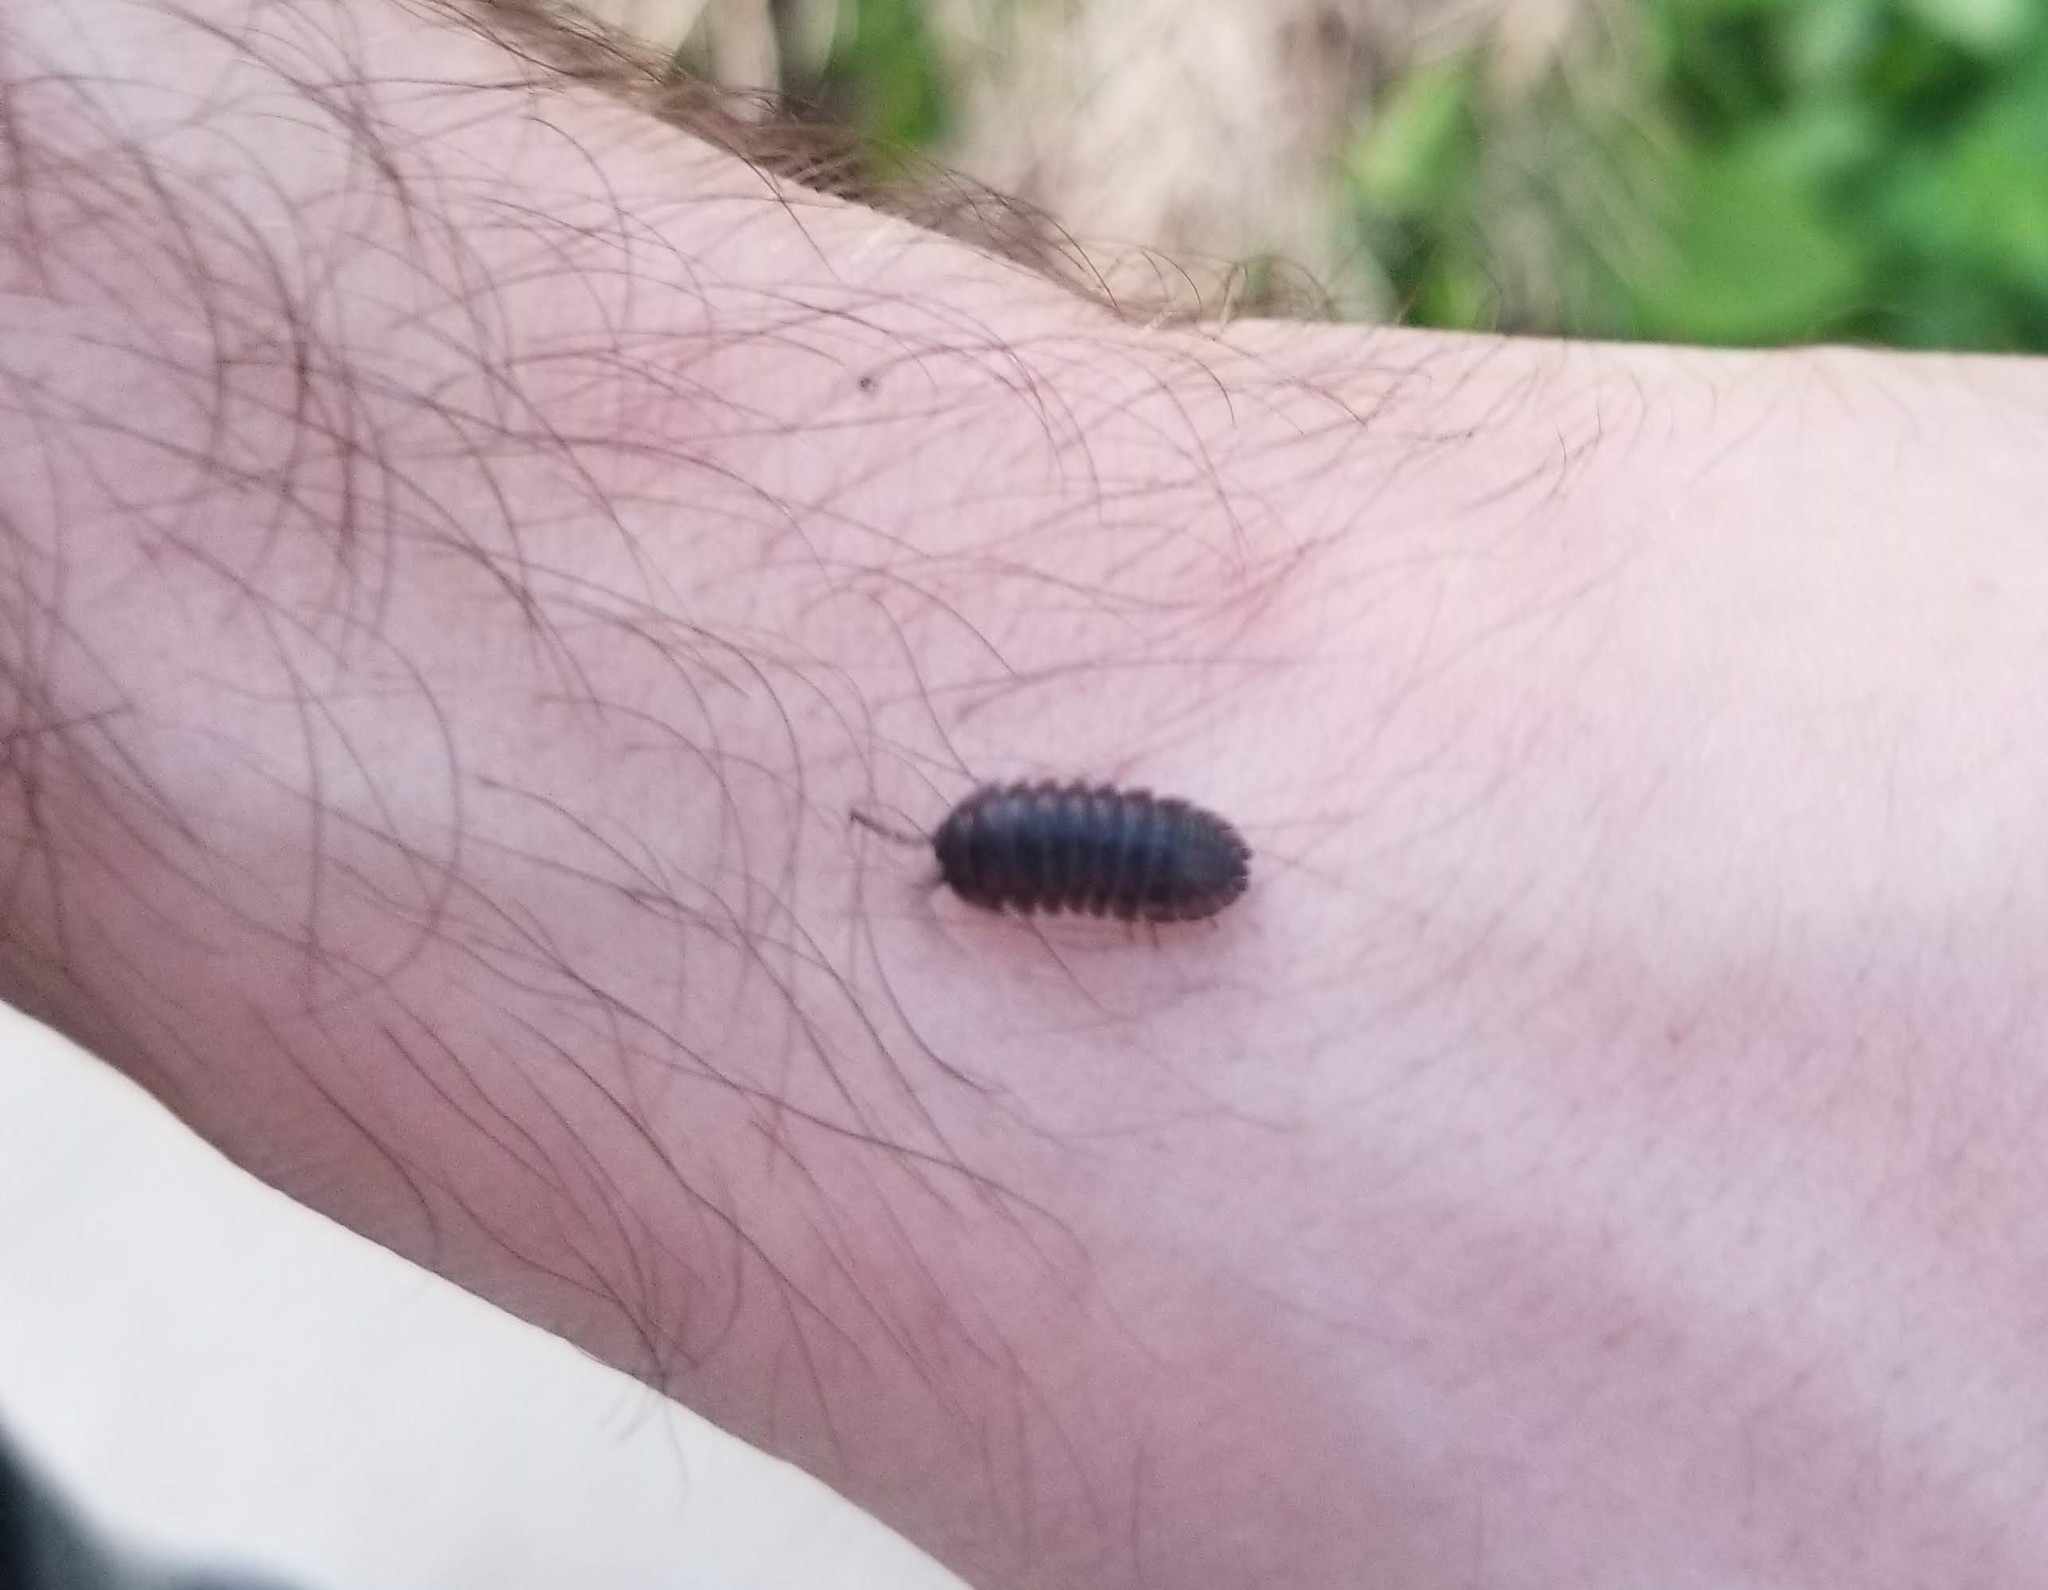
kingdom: Animalia
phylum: Arthropoda
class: Malacostraca
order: Isopoda
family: Armadillidiidae
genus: Armadillidium
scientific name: Armadillidium nasatum
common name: Isopod
